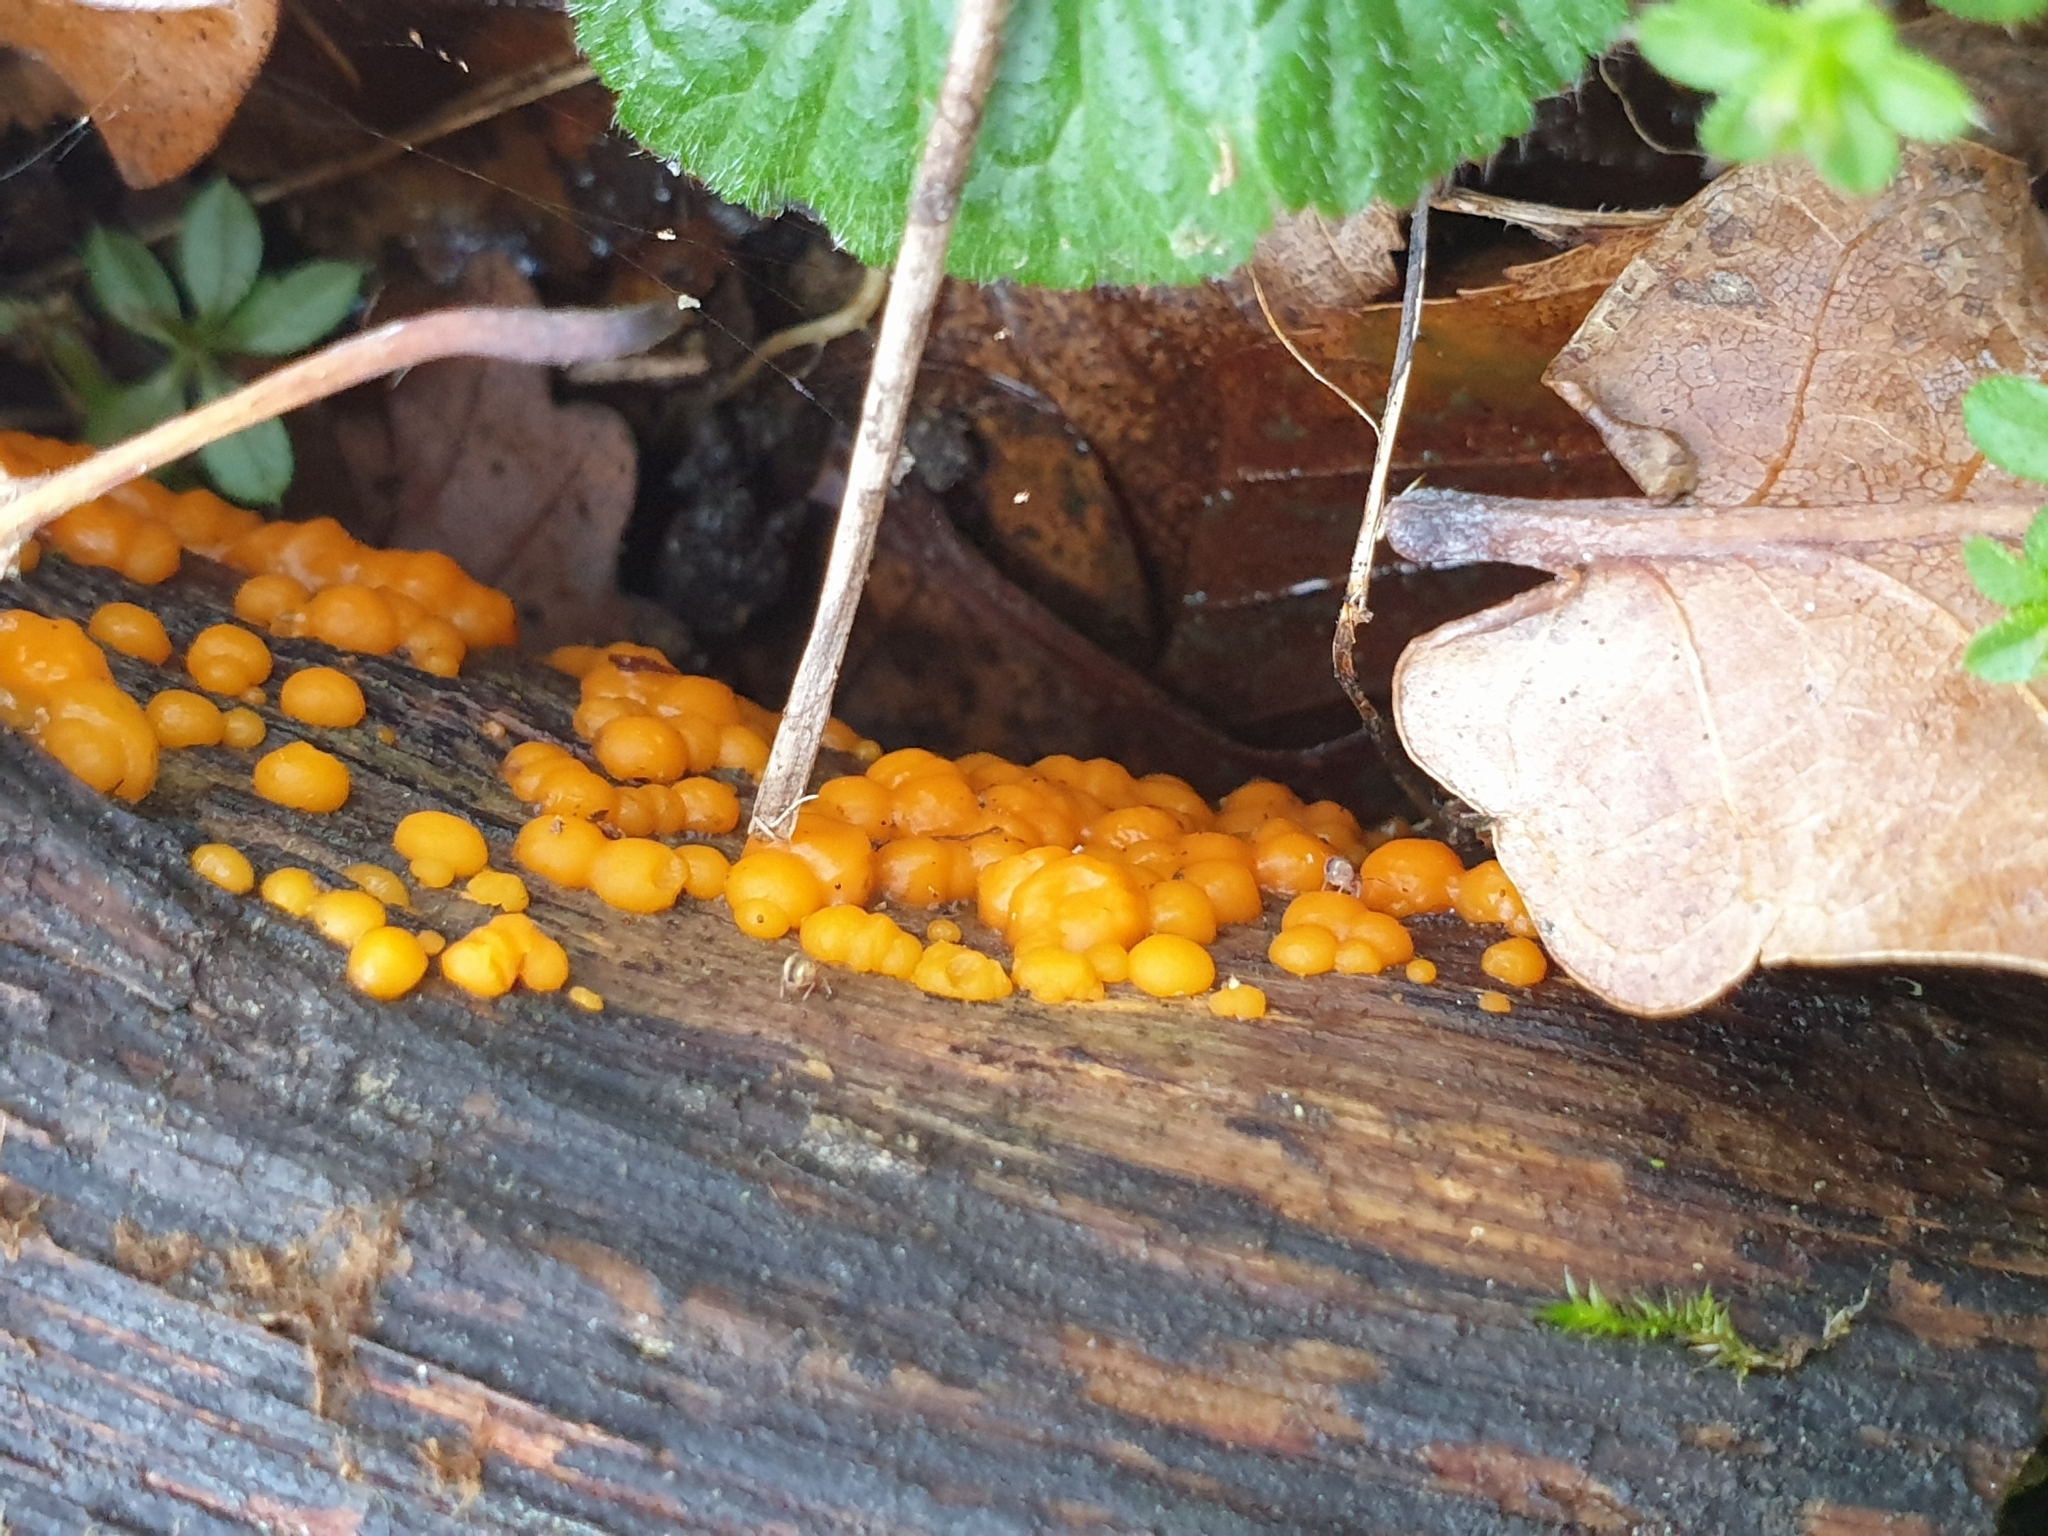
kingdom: Fungi
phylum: Basidiomycota
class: Dacrymycetes
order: Dacrymycetales
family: Dacrymycetaceae
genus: Dacrymyces
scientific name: Dacrymyces stillatus
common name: Common jelly spot
